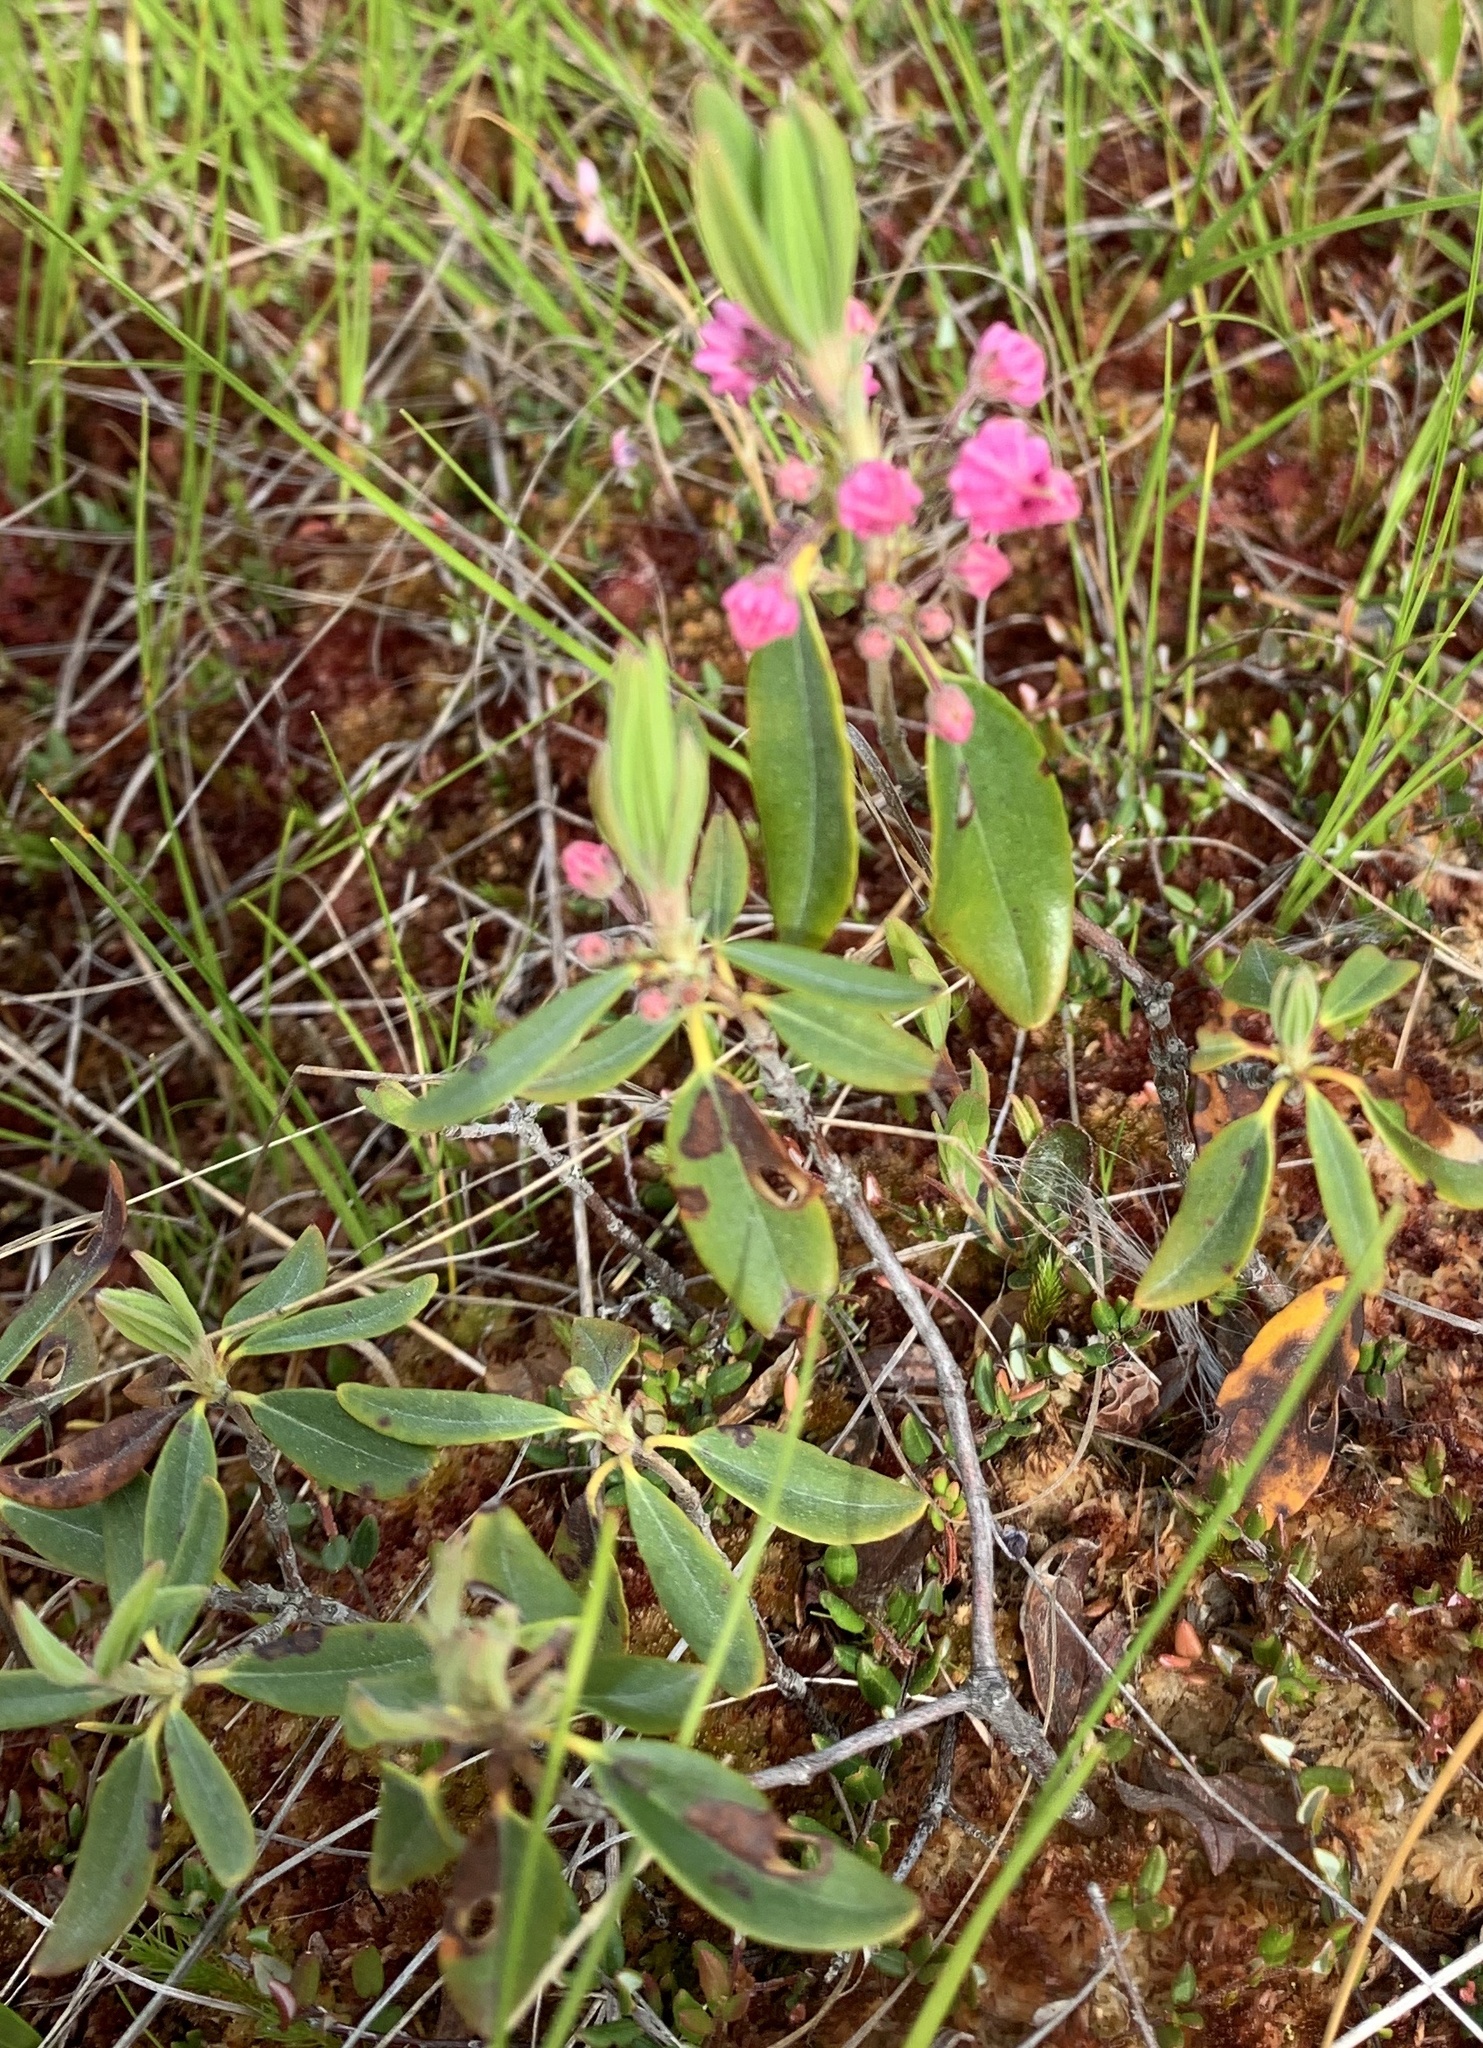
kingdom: Plantae
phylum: Tracheophyta
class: Magnoliopsida
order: Ericales
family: Ericaceae
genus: Kalmia
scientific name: Kalmia angustifolia
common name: Sheep-laurel
